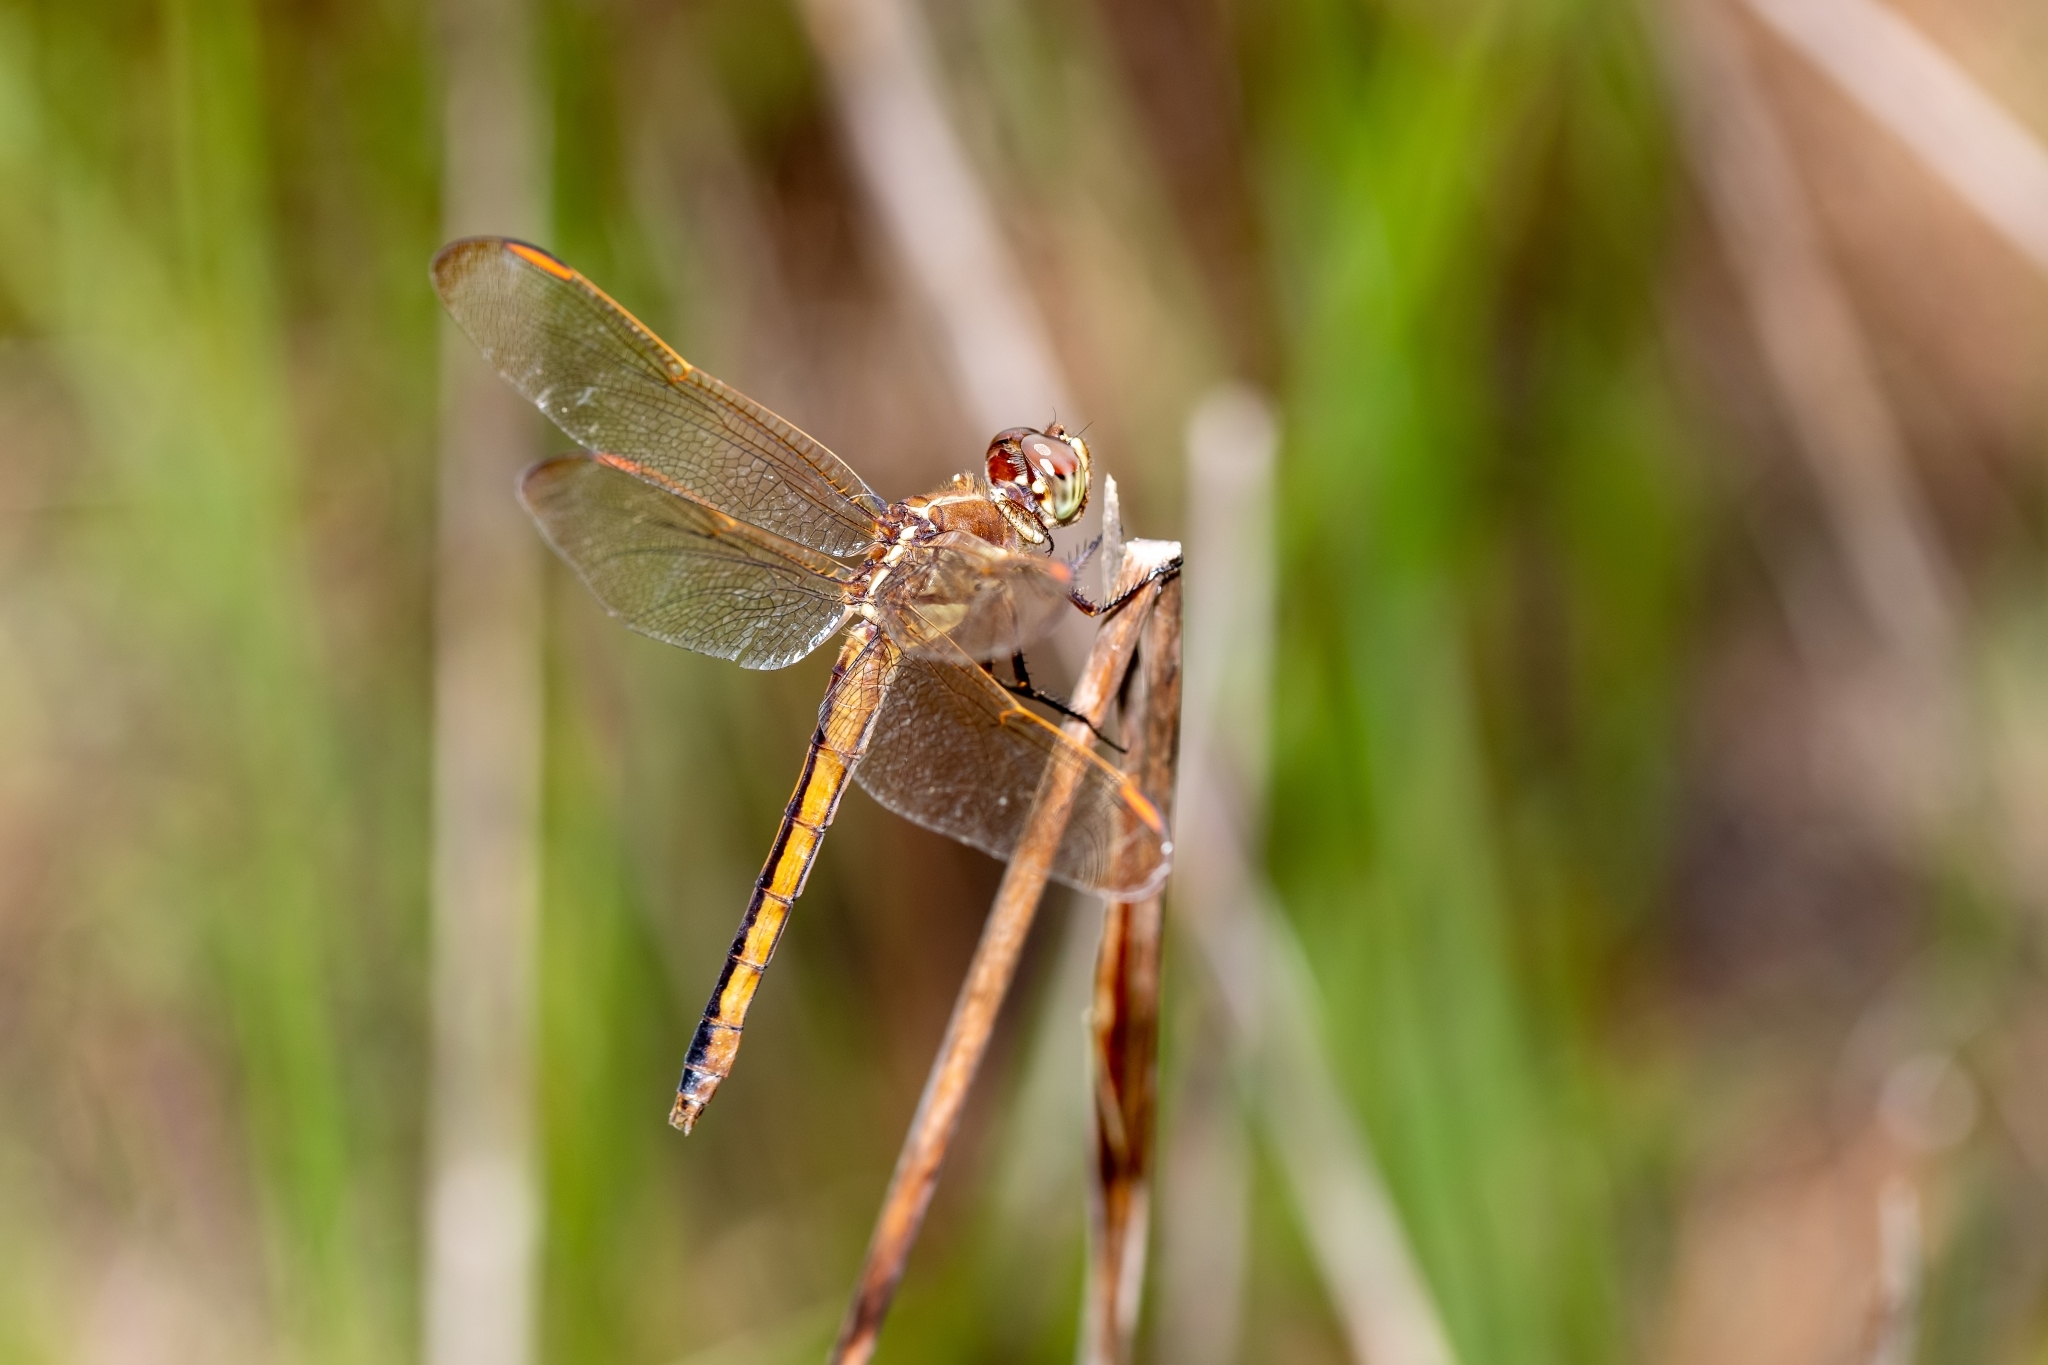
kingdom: Animalia
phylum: Arthropoda
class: Insecta
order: Odonata
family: Libellulidae
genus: Libellula
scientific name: Libellula auripennis
